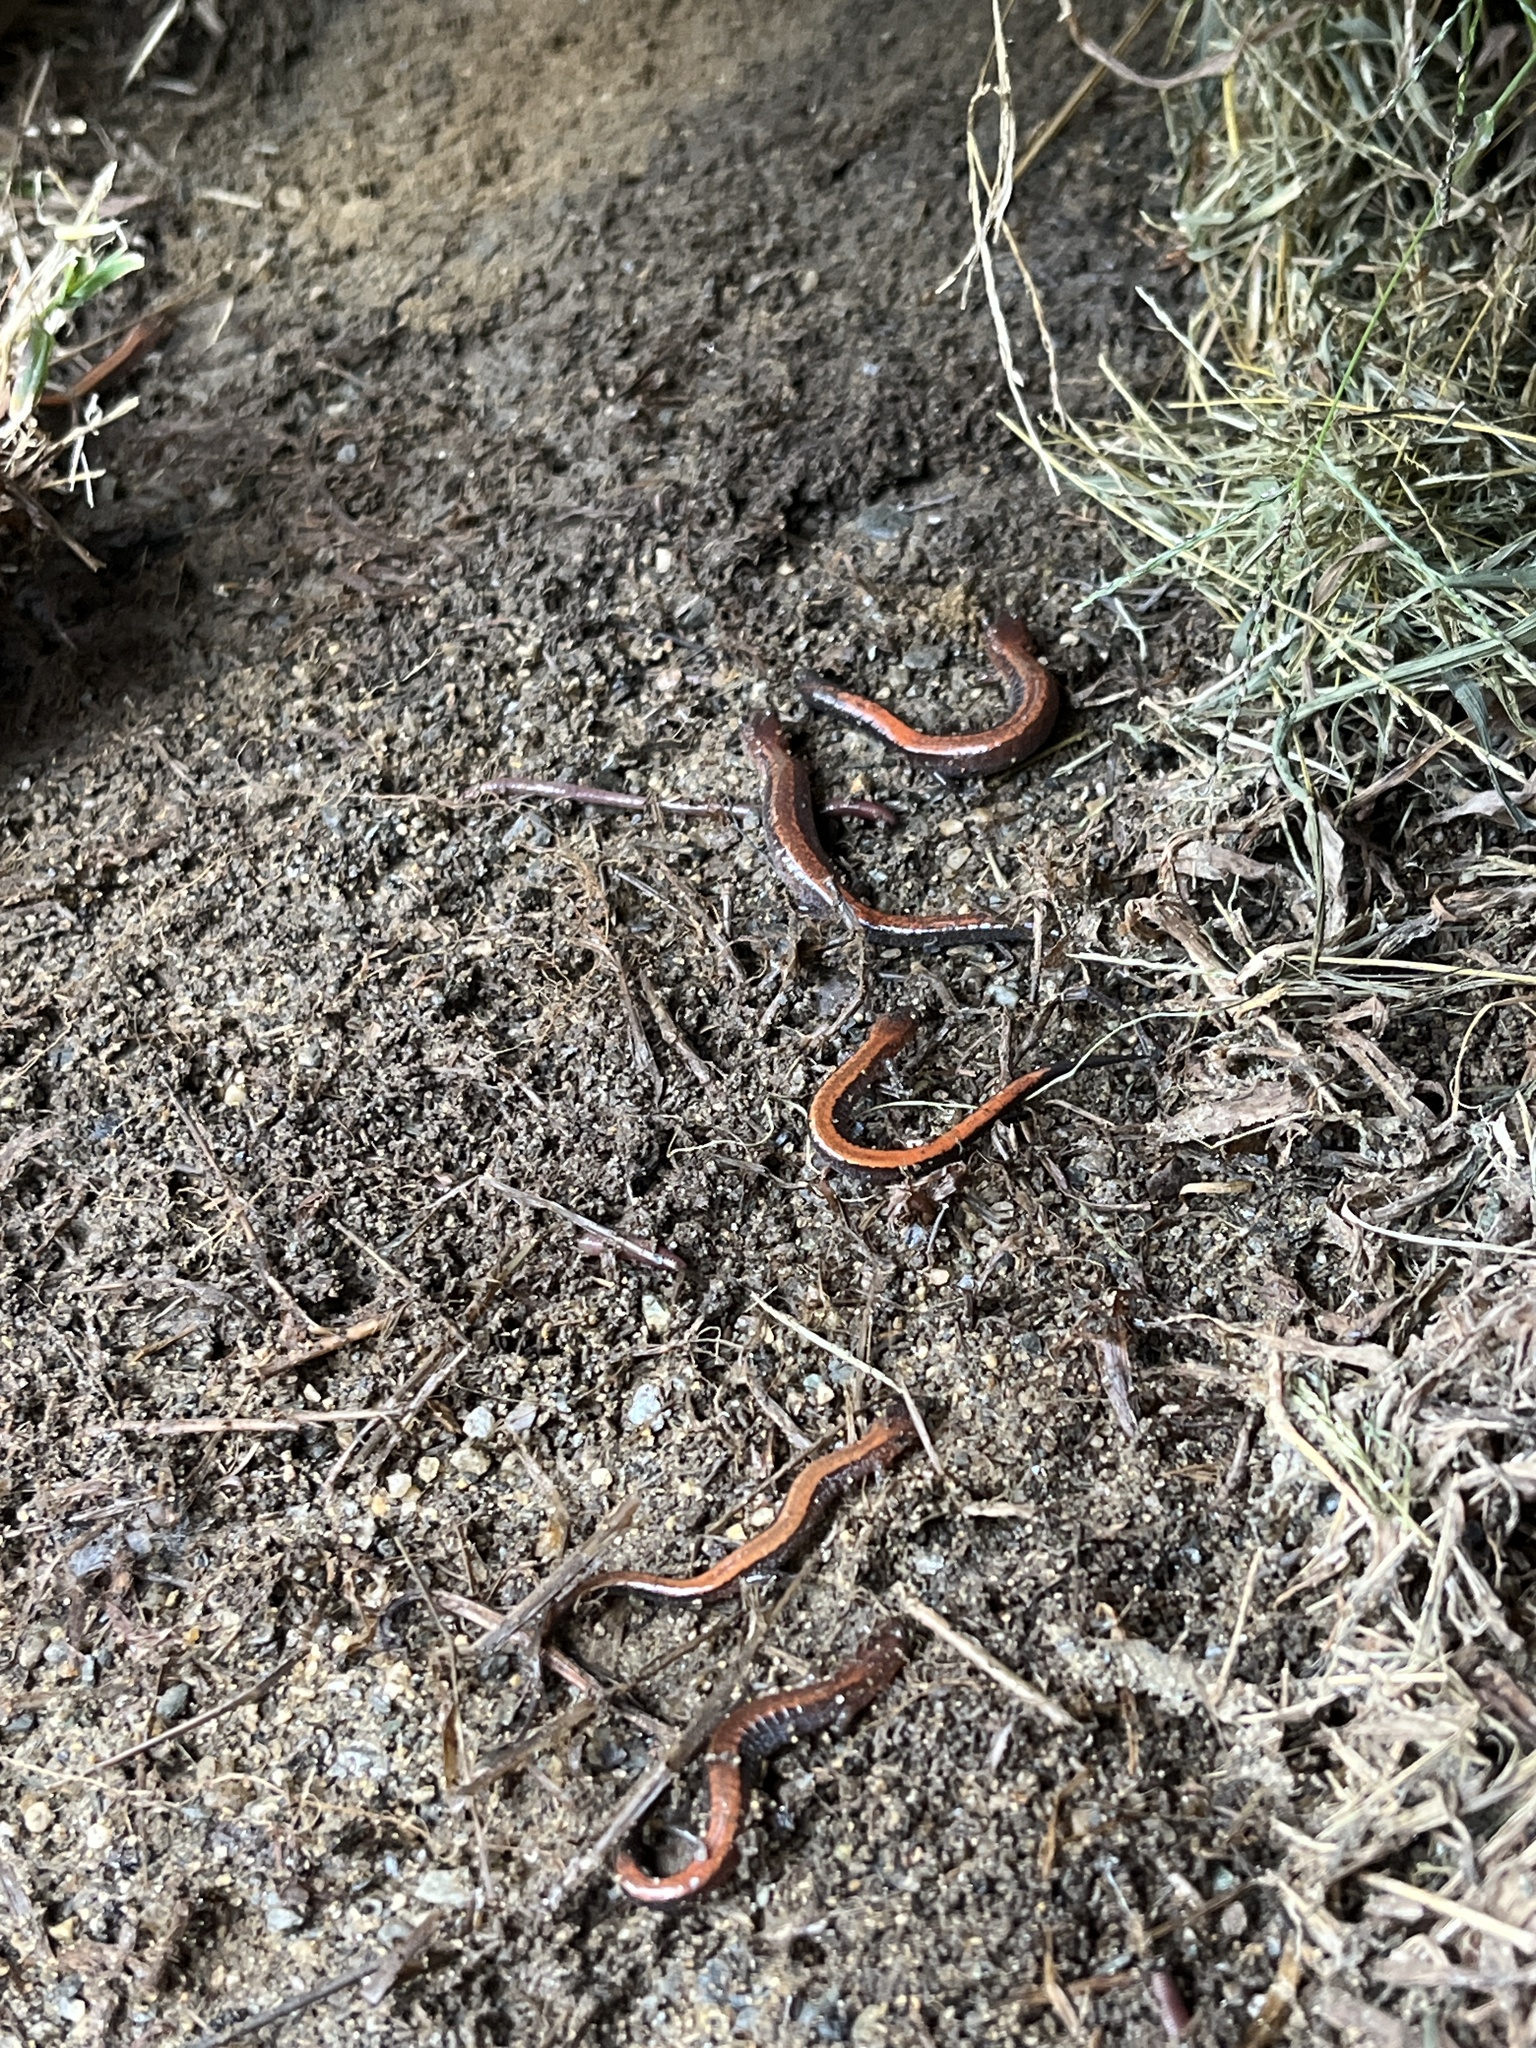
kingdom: Animalia
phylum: Chordata
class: Amphibia
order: Caudata
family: Plethodontidae
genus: Plethodon
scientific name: Plethodon cinereus
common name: Redback salamander
